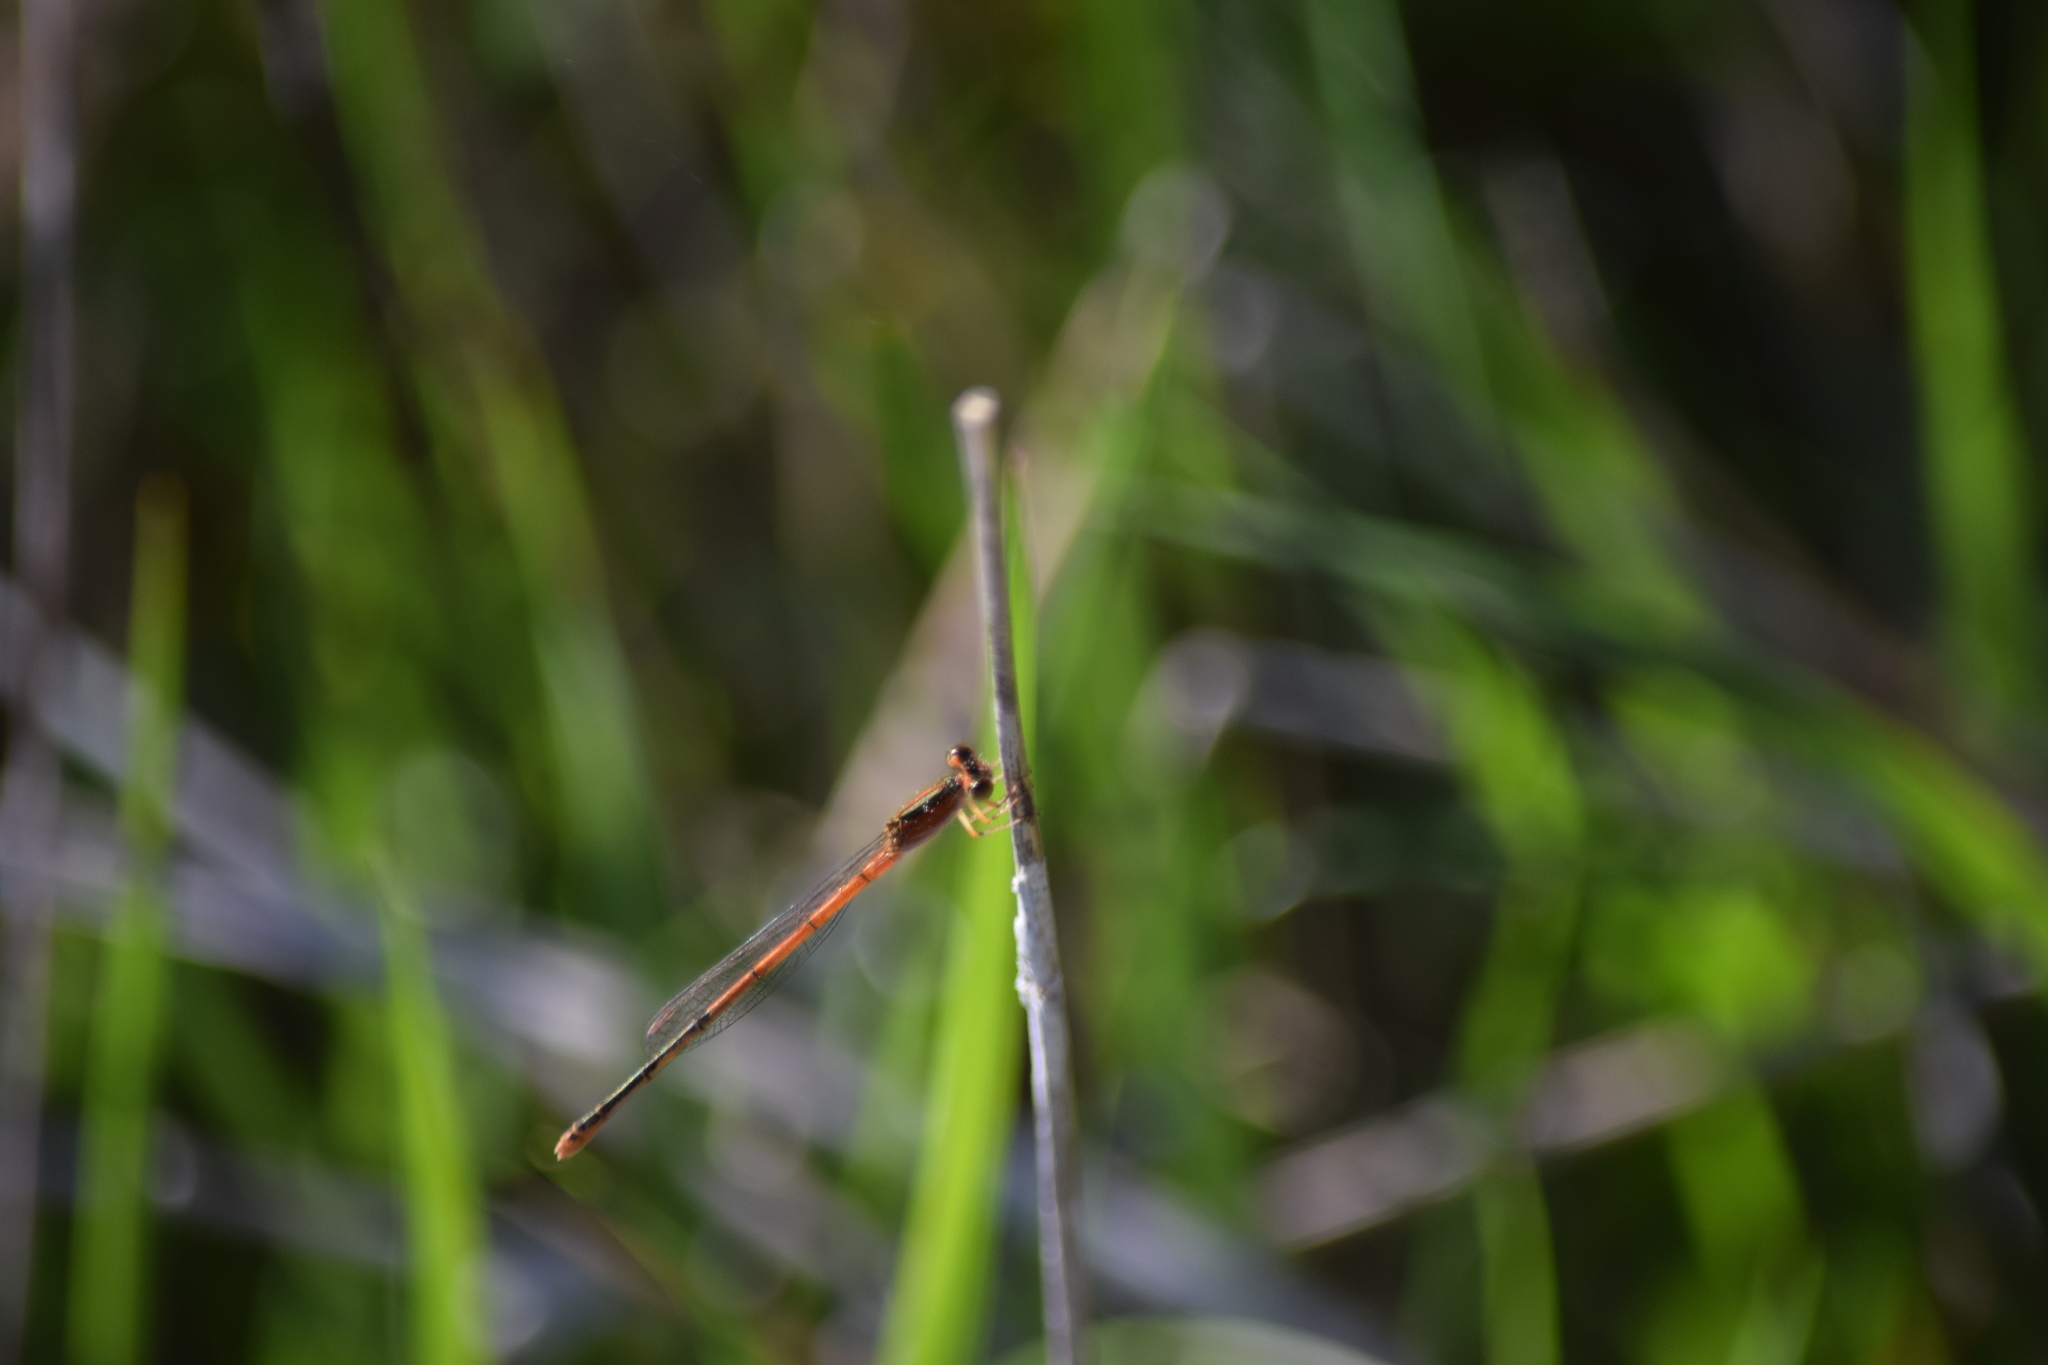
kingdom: Animalia
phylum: Arthropoda
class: Insecta
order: Odonata
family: Coenagrionidae
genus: Ischnura
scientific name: Ischnura hastata
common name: Citrine forktail
